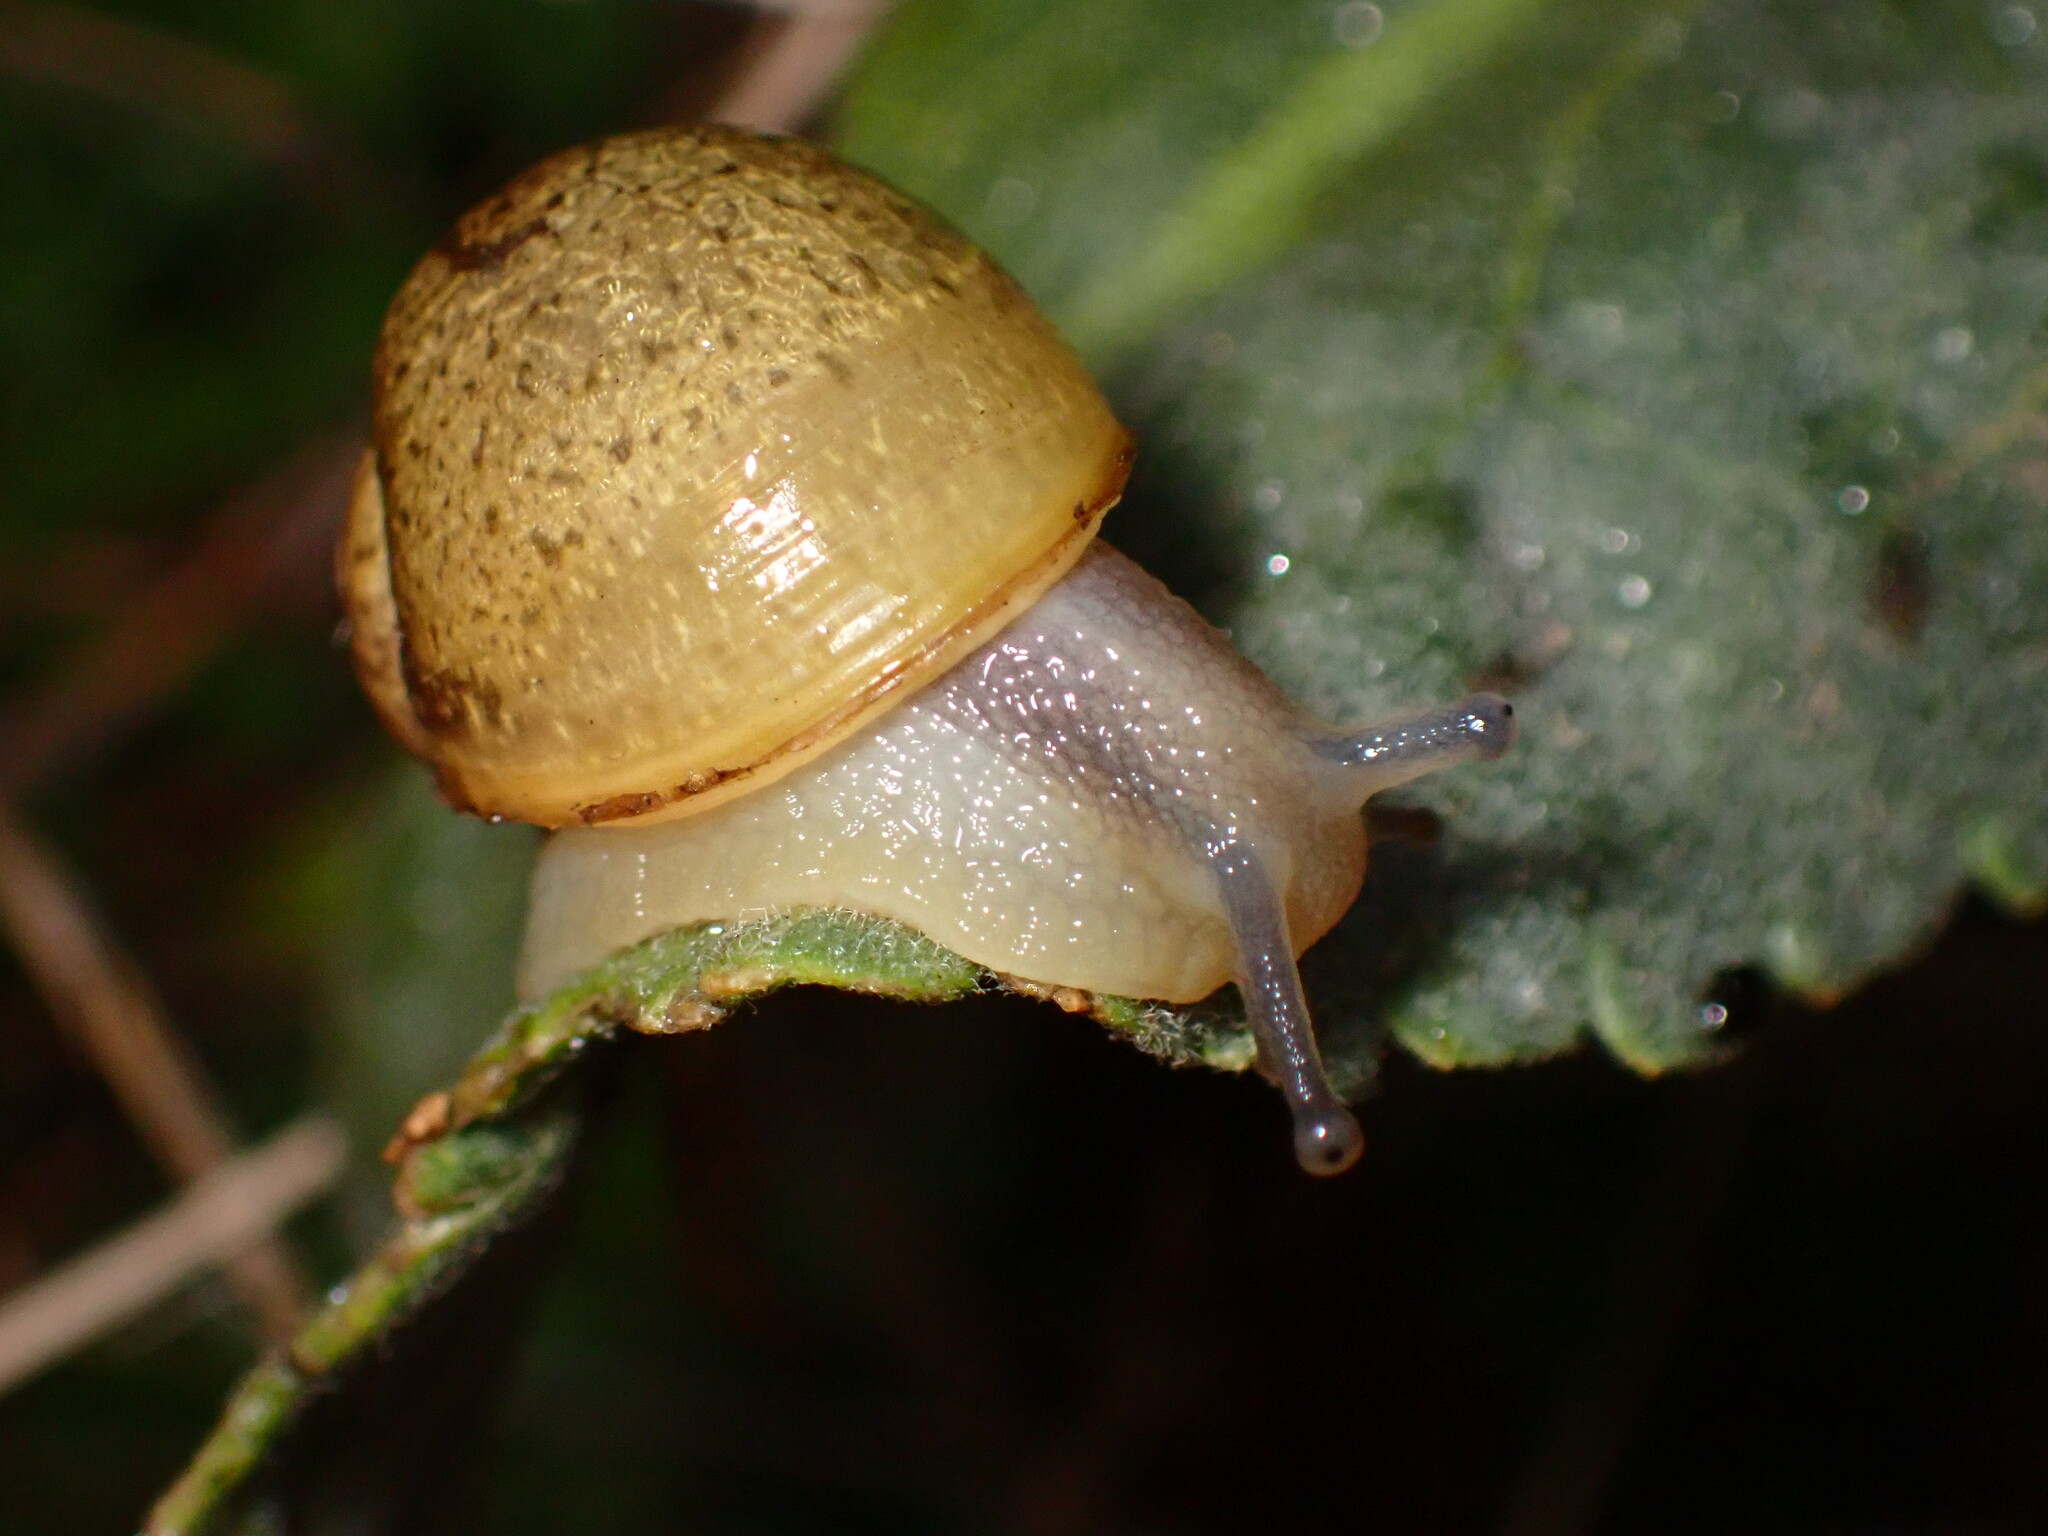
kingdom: Animalia
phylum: Mollusca
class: Gastropoda
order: Stylommatophora
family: Helicidae
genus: Cantareus
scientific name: Cantareus apertus
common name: Green gardensnail
